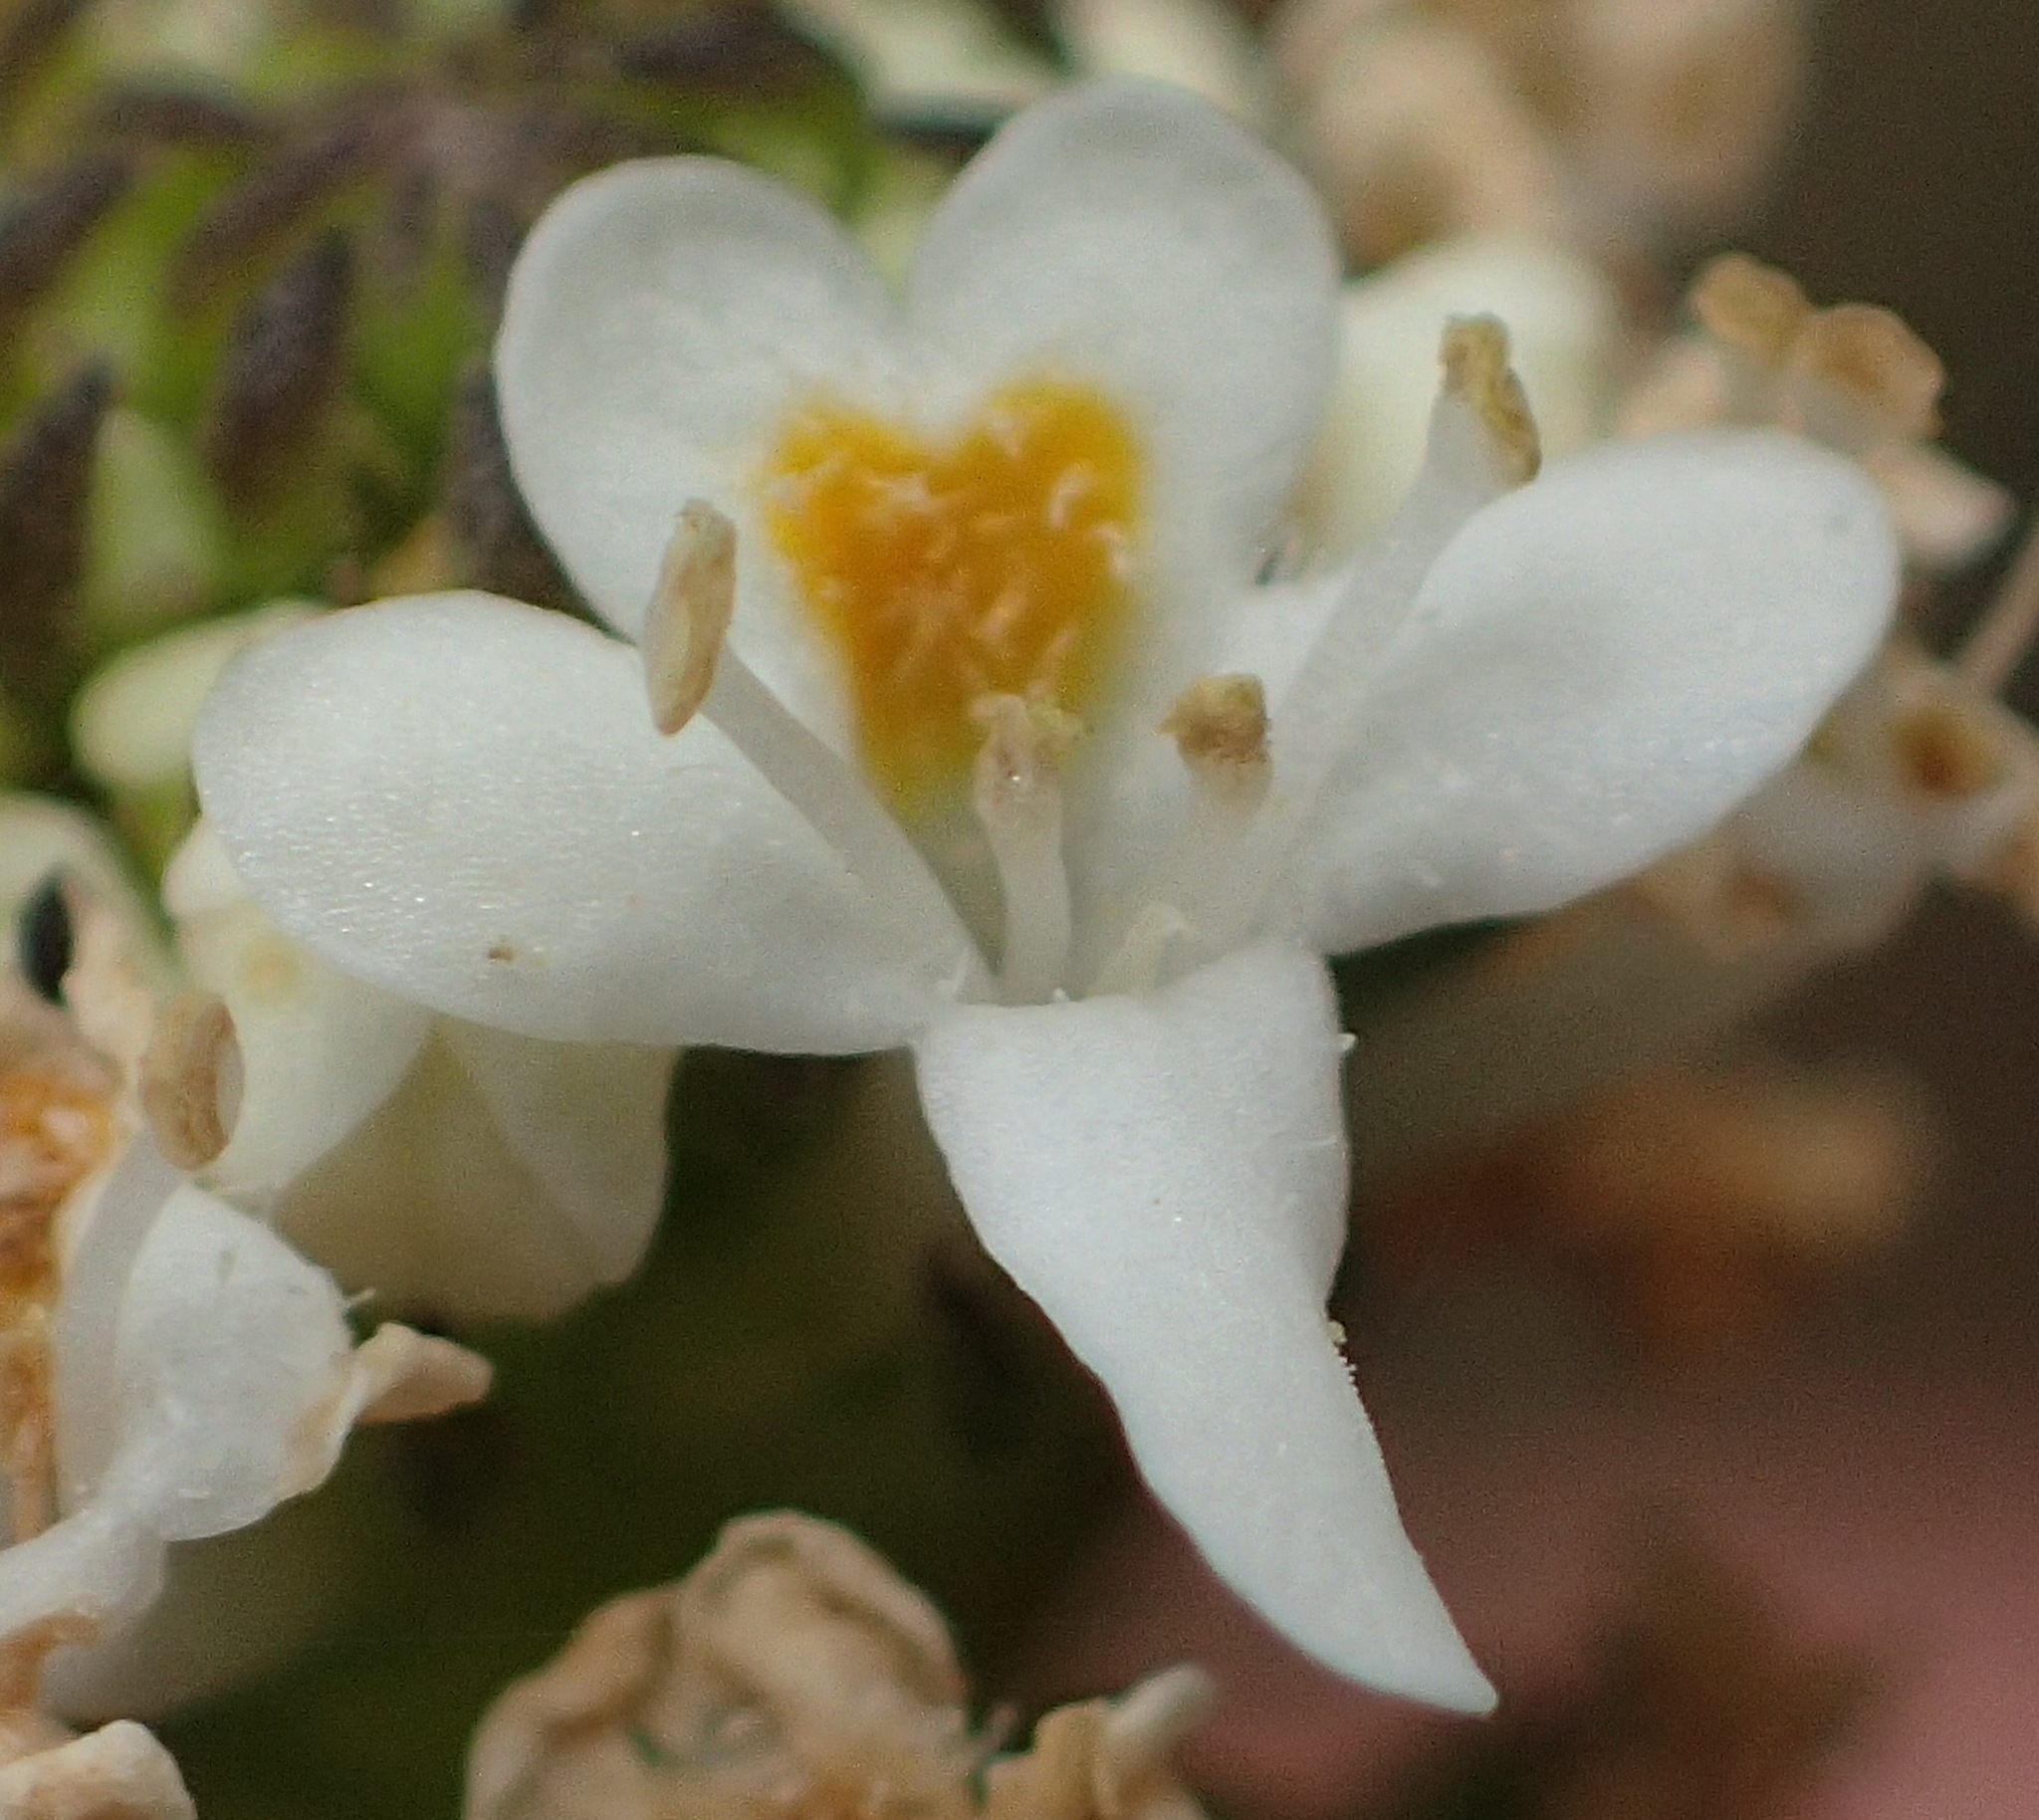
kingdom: Plantae
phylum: Tracheophyta
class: Magnoliopsida
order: Lamiales
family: Scrophulariaceae
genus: Pseudoselago
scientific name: Pseudoselago outeniquensis
